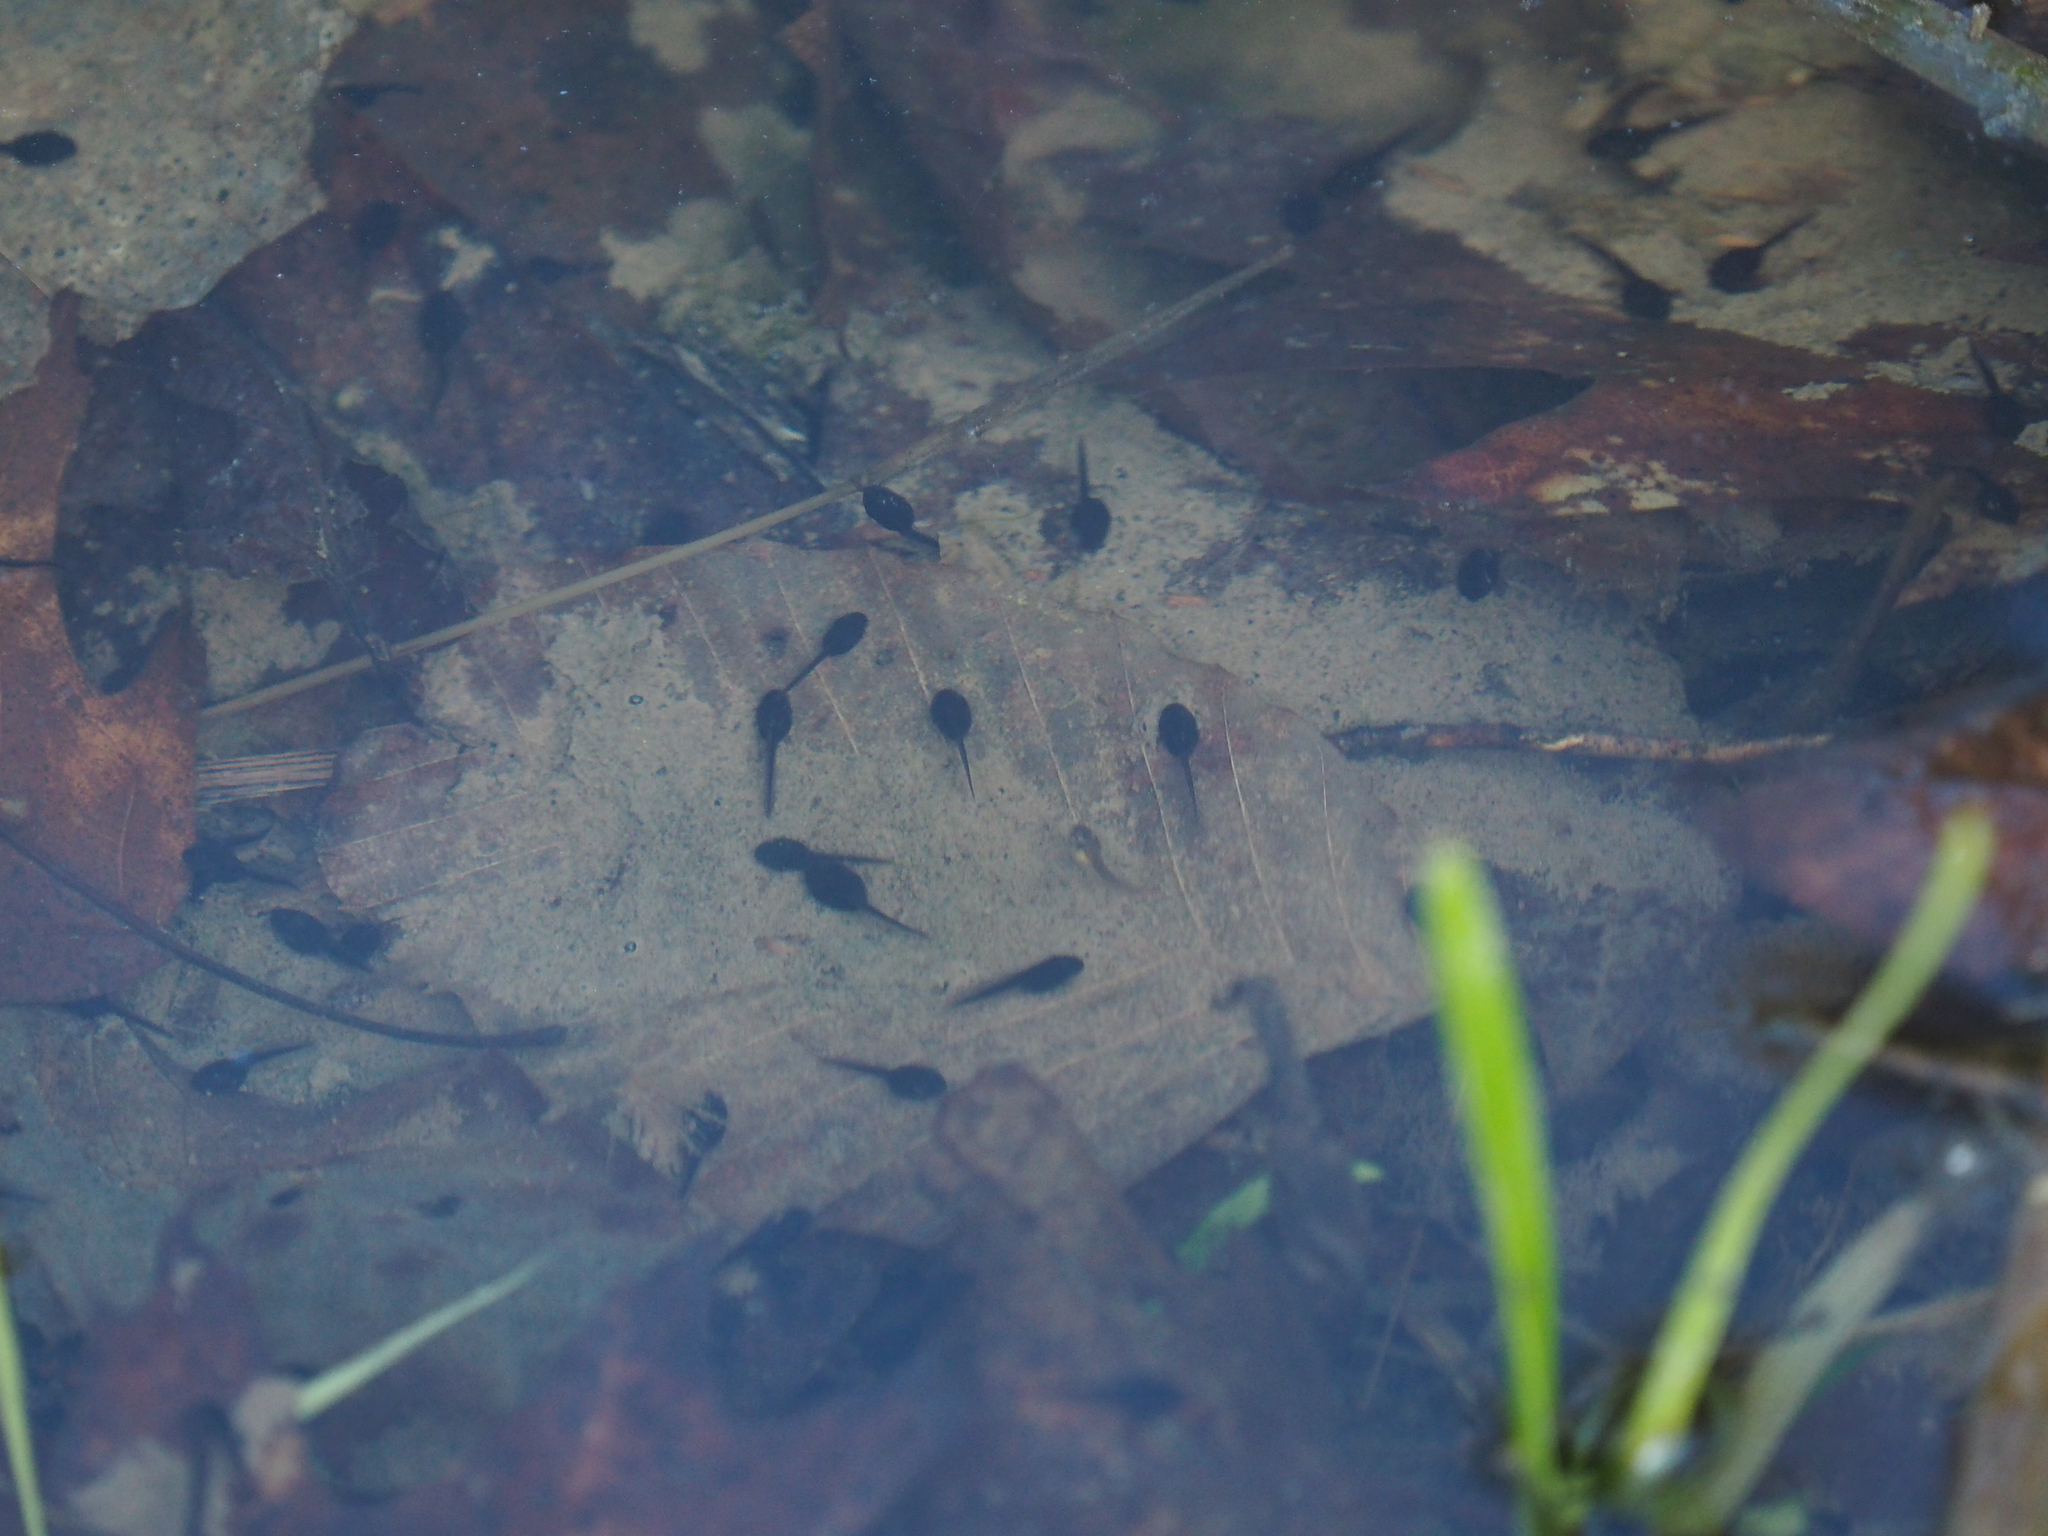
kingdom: Animalia
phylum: Chordata
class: Amphibia
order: Anura
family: Bufonidae
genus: Anaxyrus
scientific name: Anaxyrus americanus
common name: American toad
